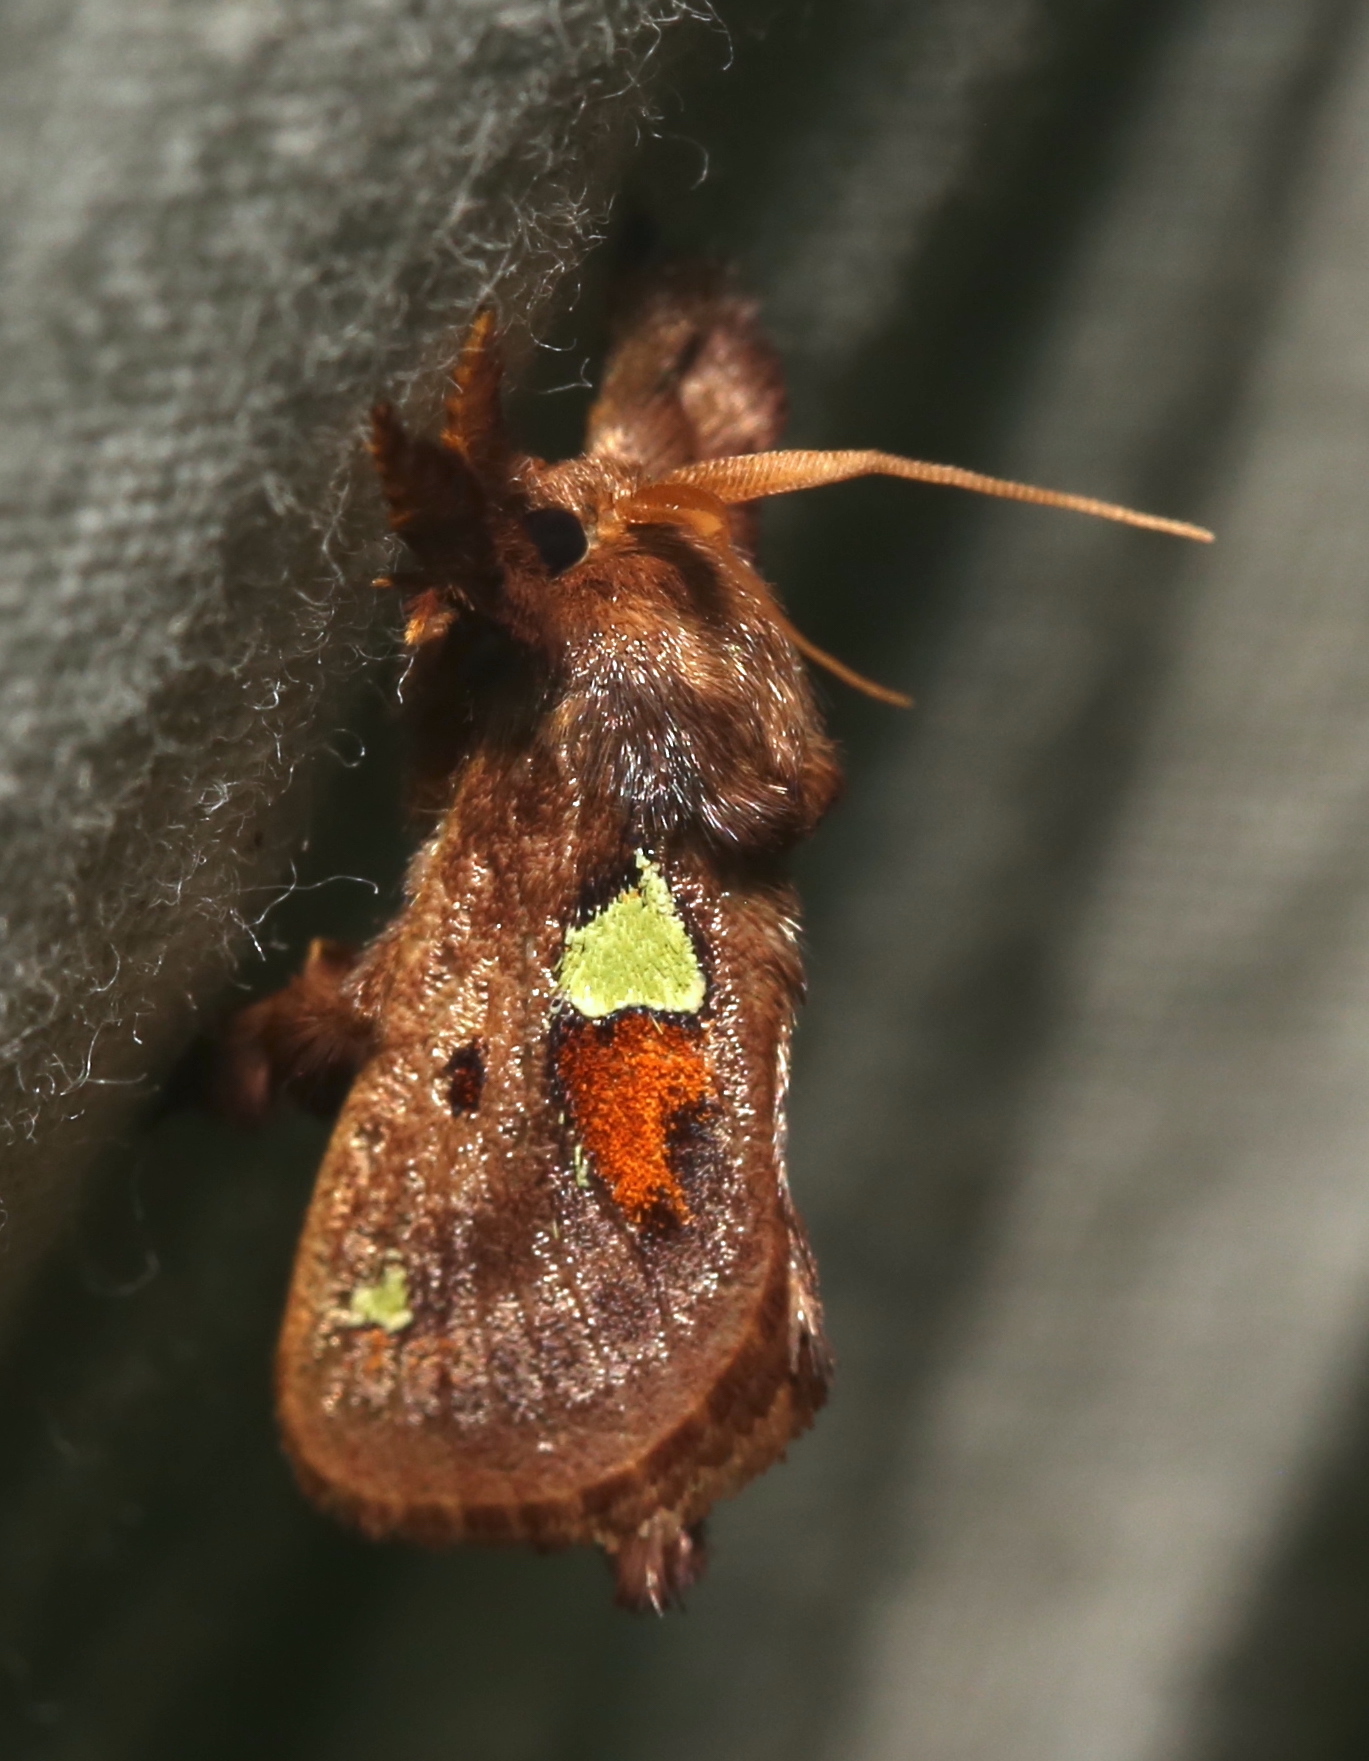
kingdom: Animalia
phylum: Arthropoda
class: Insecta
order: Lepidoptera
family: Limacodidae
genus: Euclea
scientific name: Euclea delphinii
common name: Spiny oak-slug moth
